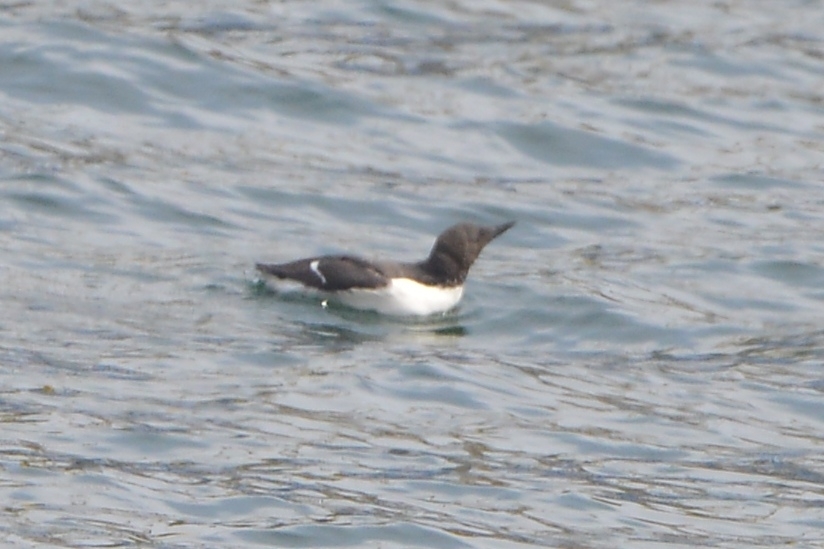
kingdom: Animalia
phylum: Chordata
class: Aves
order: Charadriiformes
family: Alcidae
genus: Uria
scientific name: Uria aalge
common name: Common murre
